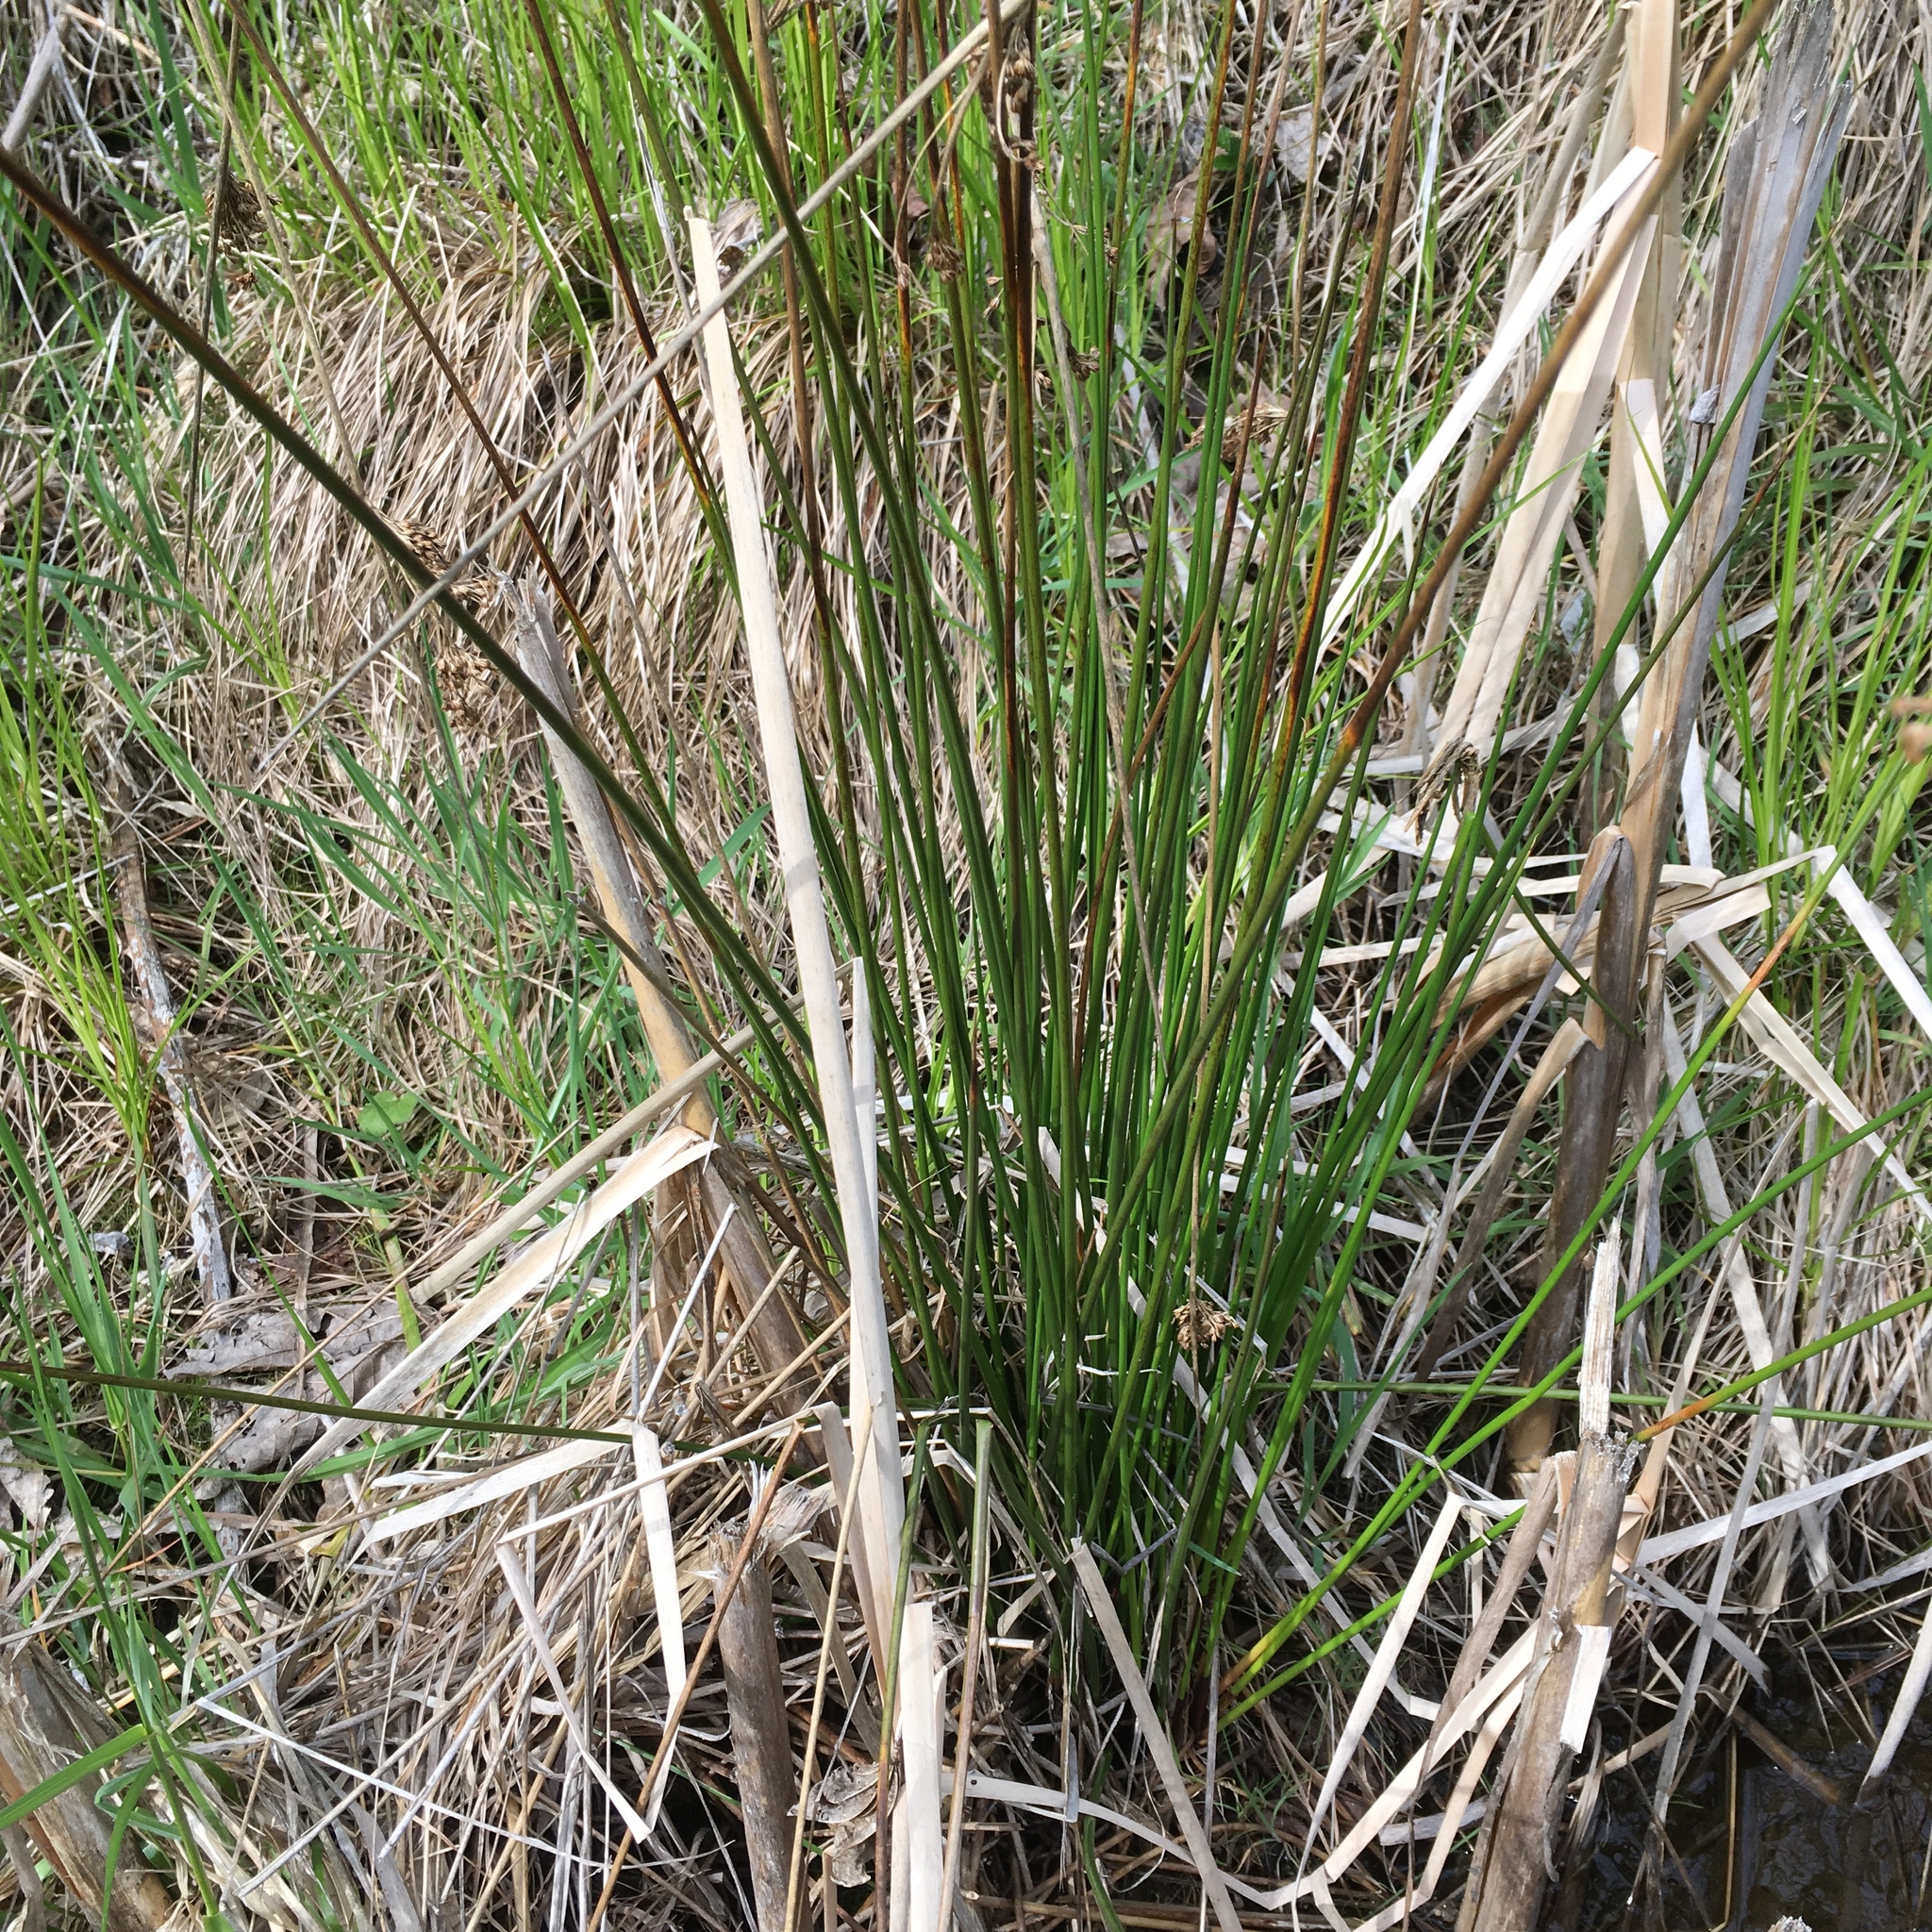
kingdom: Plantae
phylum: Tracheophyta
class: Liliopsida
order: Poales
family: Juncaceae
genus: Juncus
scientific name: Juncus effusus
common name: Soft rush
